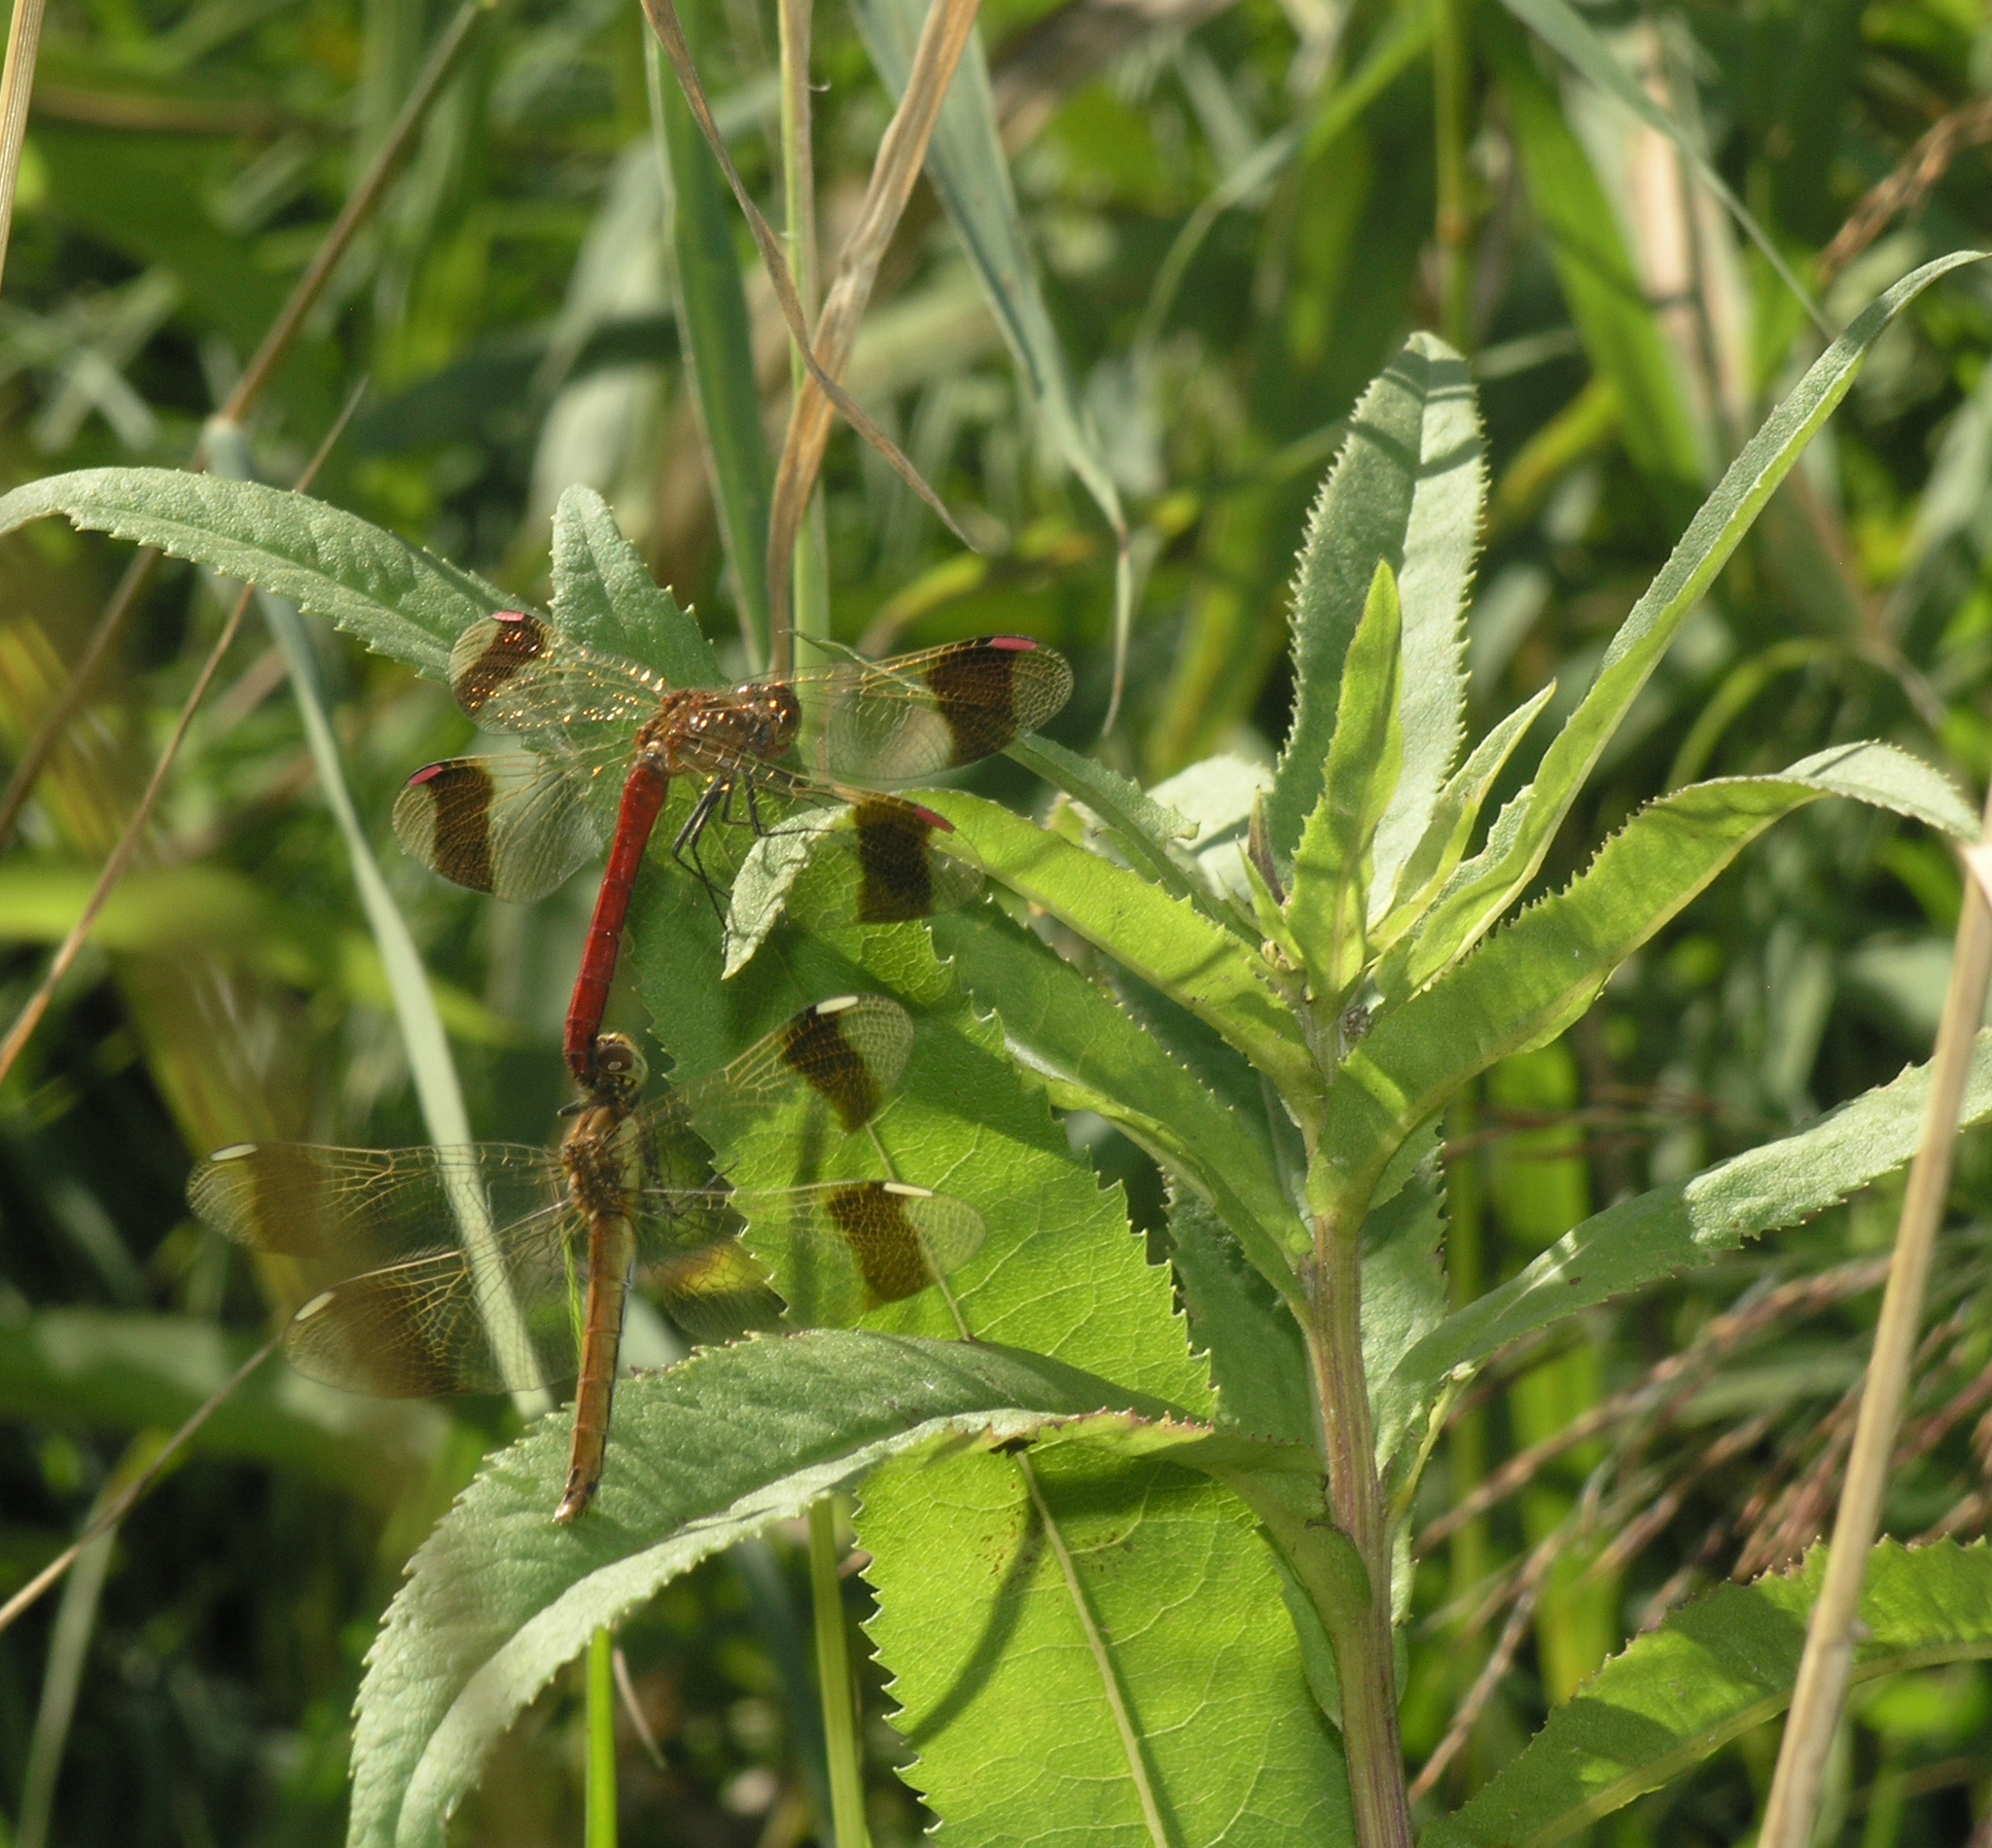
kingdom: Animalia
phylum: Arthropoda
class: Insecta
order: Odonata
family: Libellulidae
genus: Sympetrum
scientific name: Sympetrum pedemontanum
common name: Banded darter
